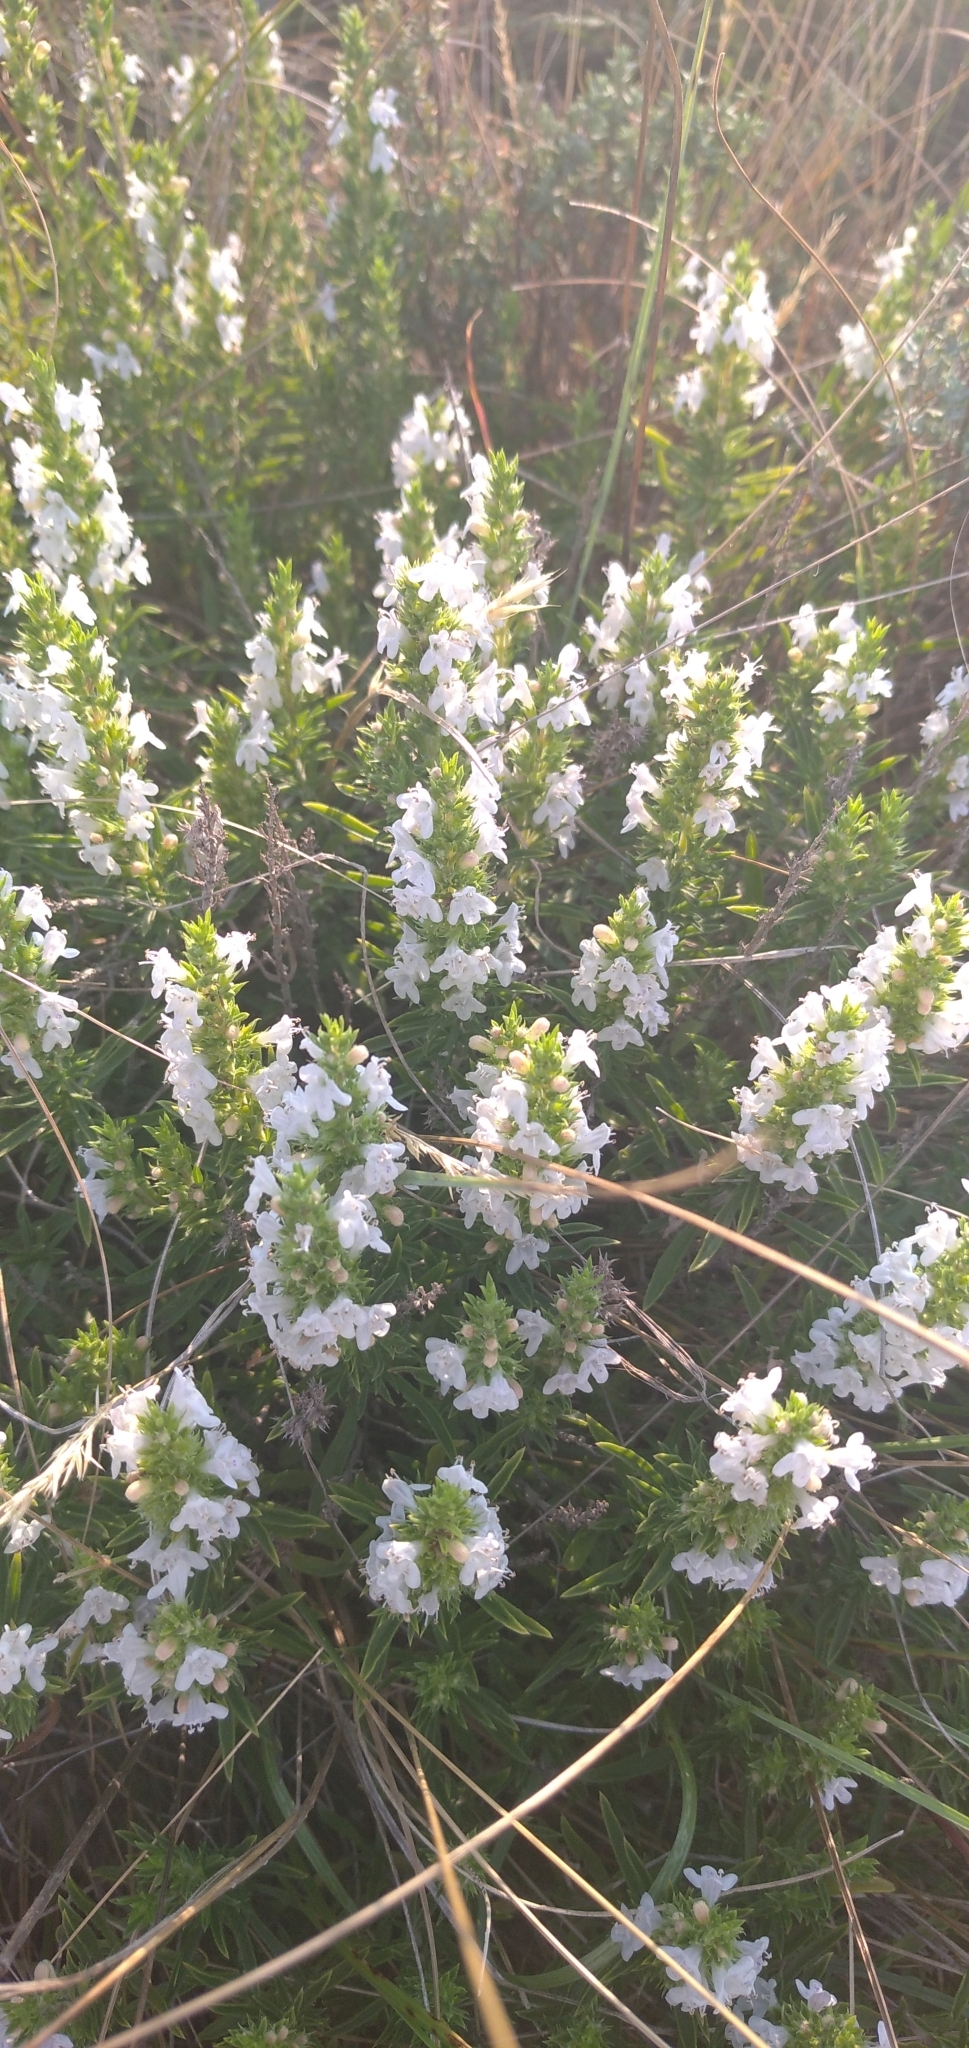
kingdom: Plantae
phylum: Tracheophyta
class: Magnoliopsida
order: Lamiales
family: Lamiaceae
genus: Satureja
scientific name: Satureja montana
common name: Winter savory
